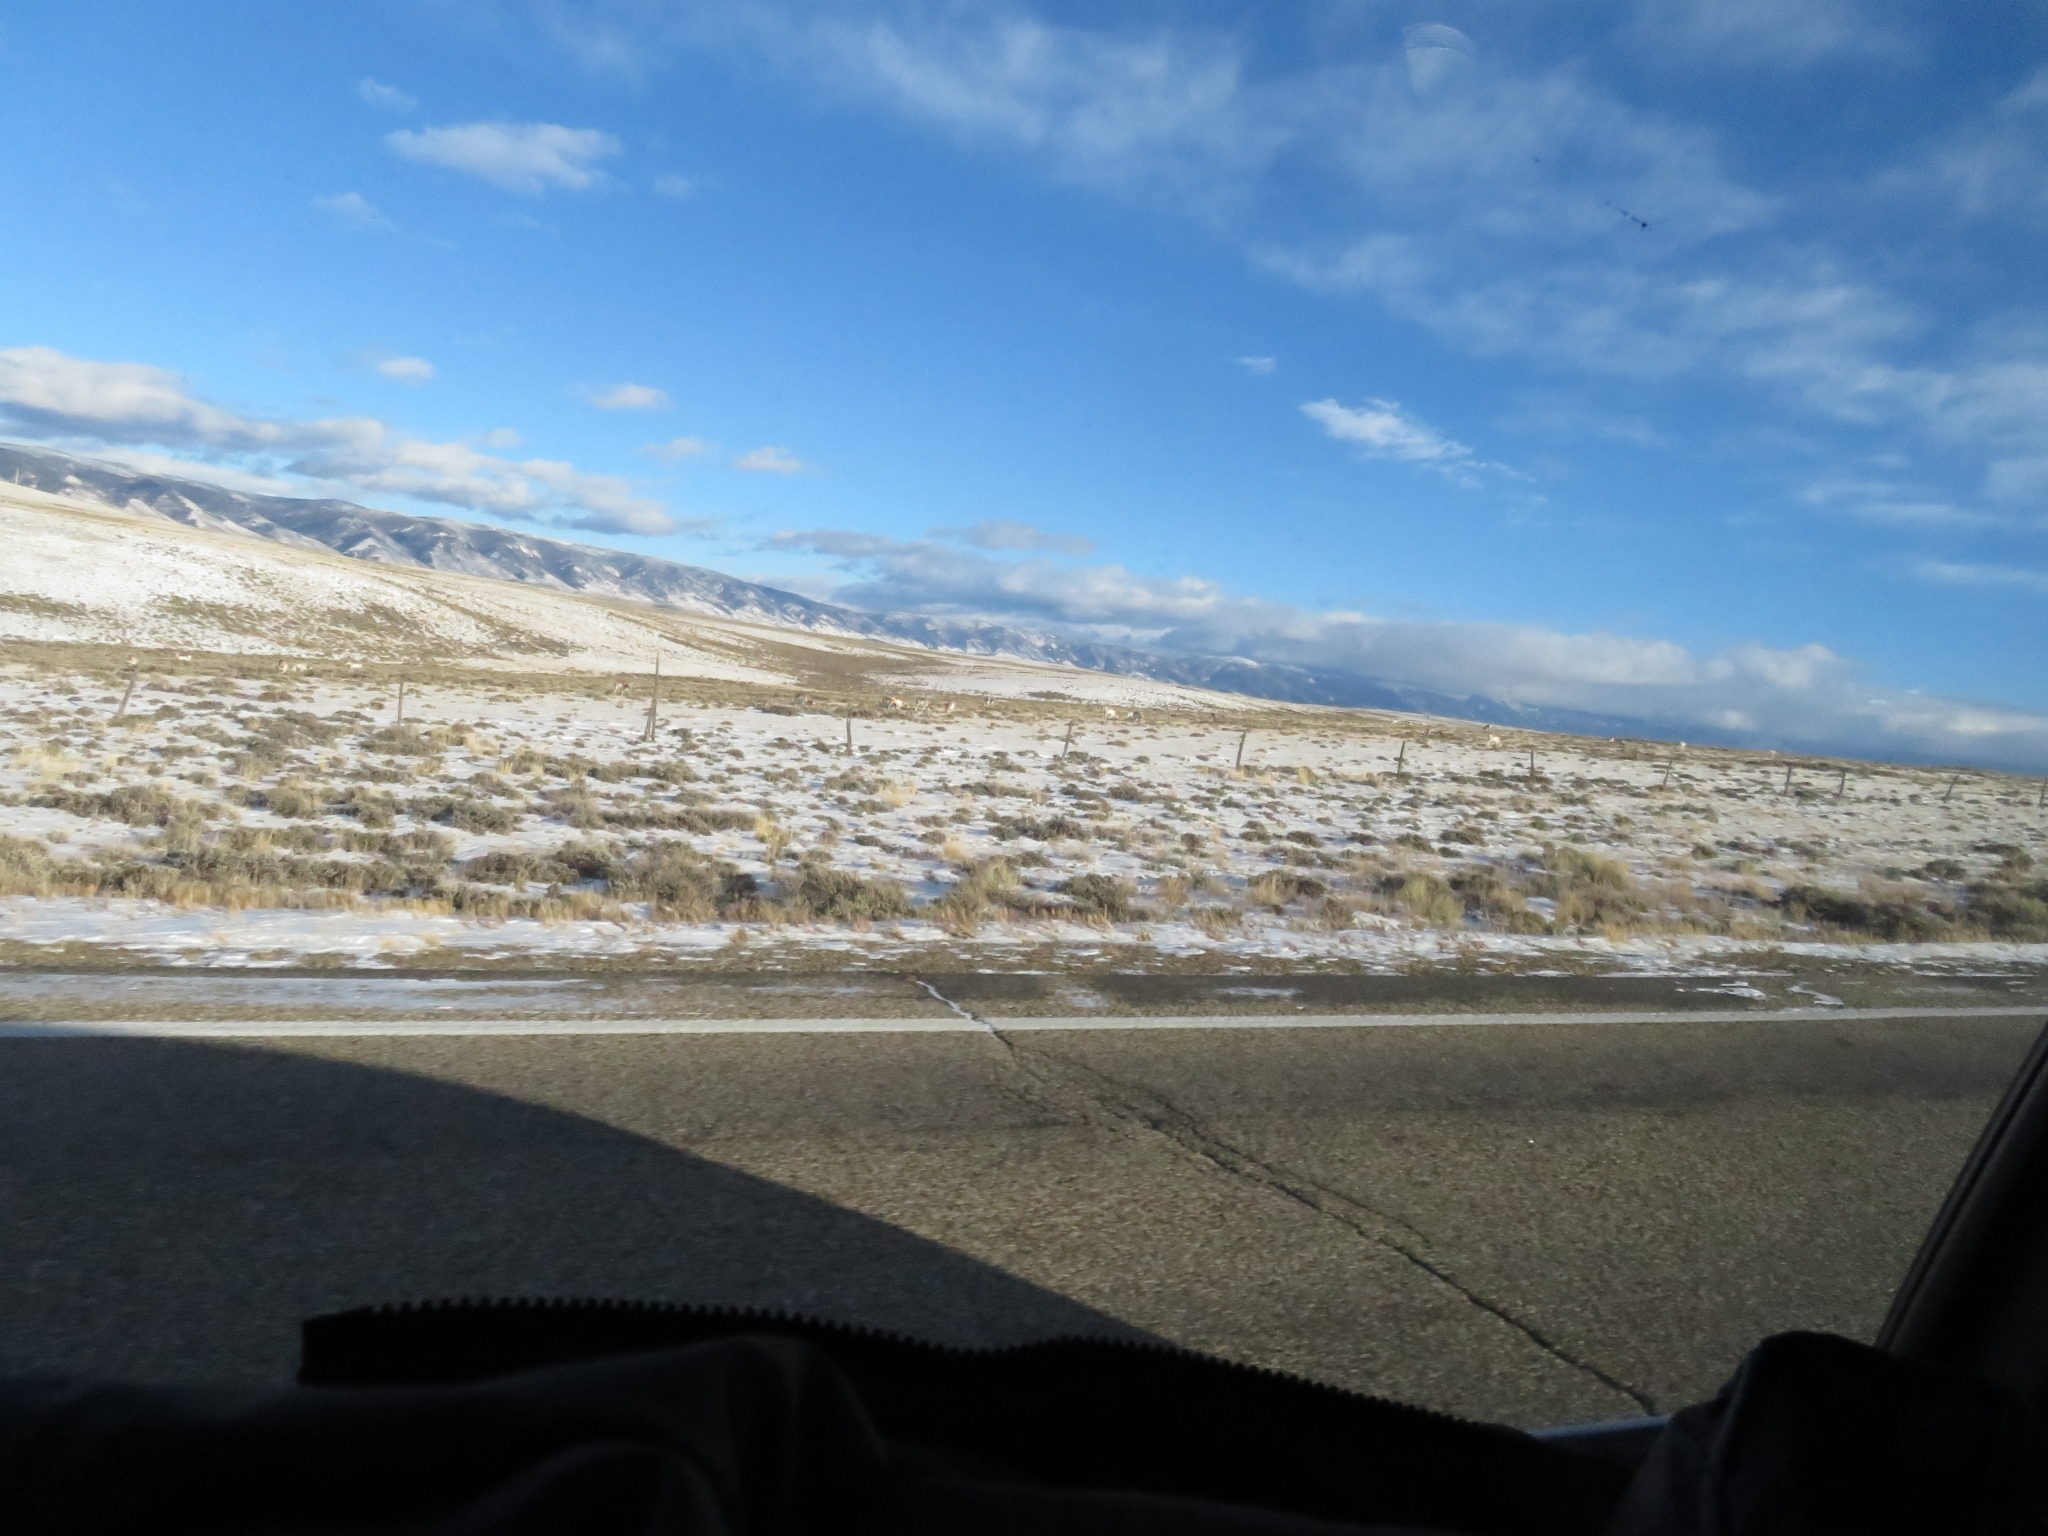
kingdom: Animalia
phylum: Chordata
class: Mammalia
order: Artiodactyla
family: Antilocapridae
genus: Antilocapra
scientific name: Antilocapra americana
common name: Pronghorn
